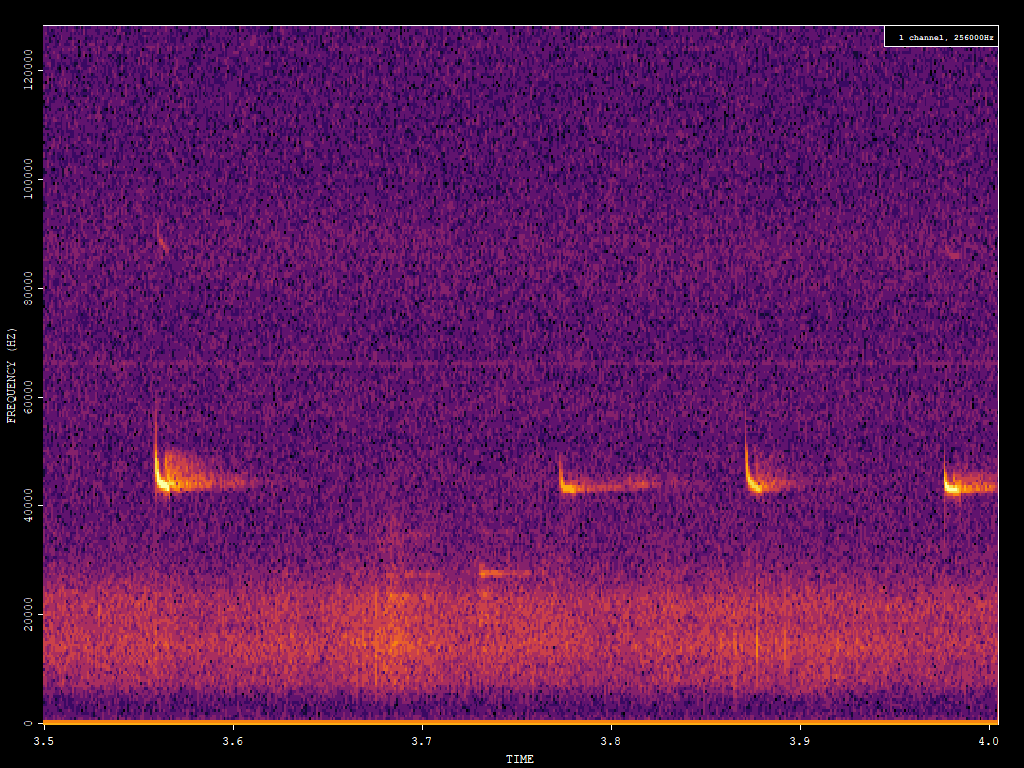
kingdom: Animalia
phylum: Chordata
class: Mammalia
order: Chiroptera
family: Vespertilionidae
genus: Pipistrellus
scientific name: Pipistrellus pipistrellus
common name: Common pipistrelle
